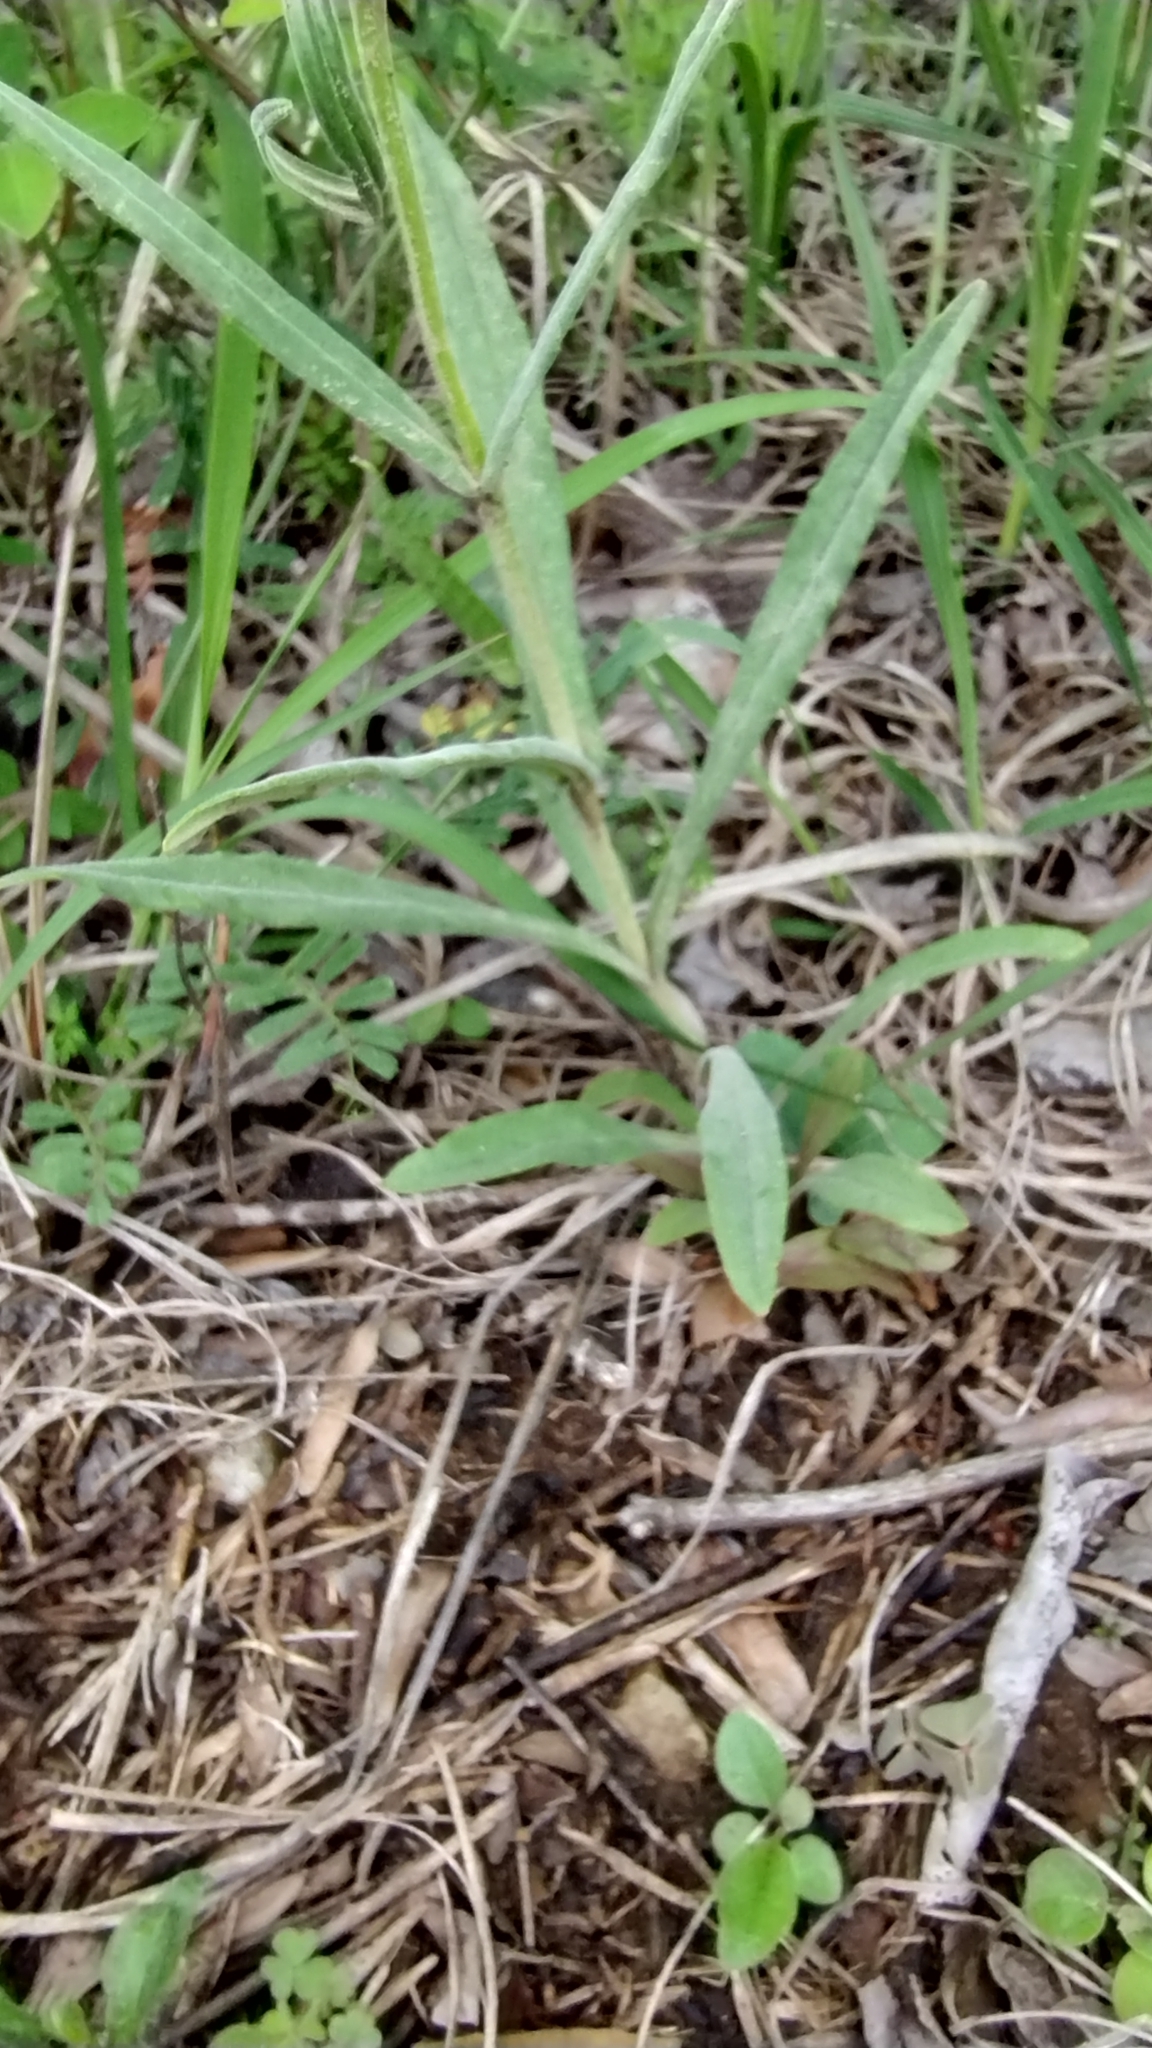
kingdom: Plantae
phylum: Tracheophyta
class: Magnoliopsida
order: Lamiales
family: Plantaginaceae
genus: Penstemon
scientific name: Penstemon oklahomensis
